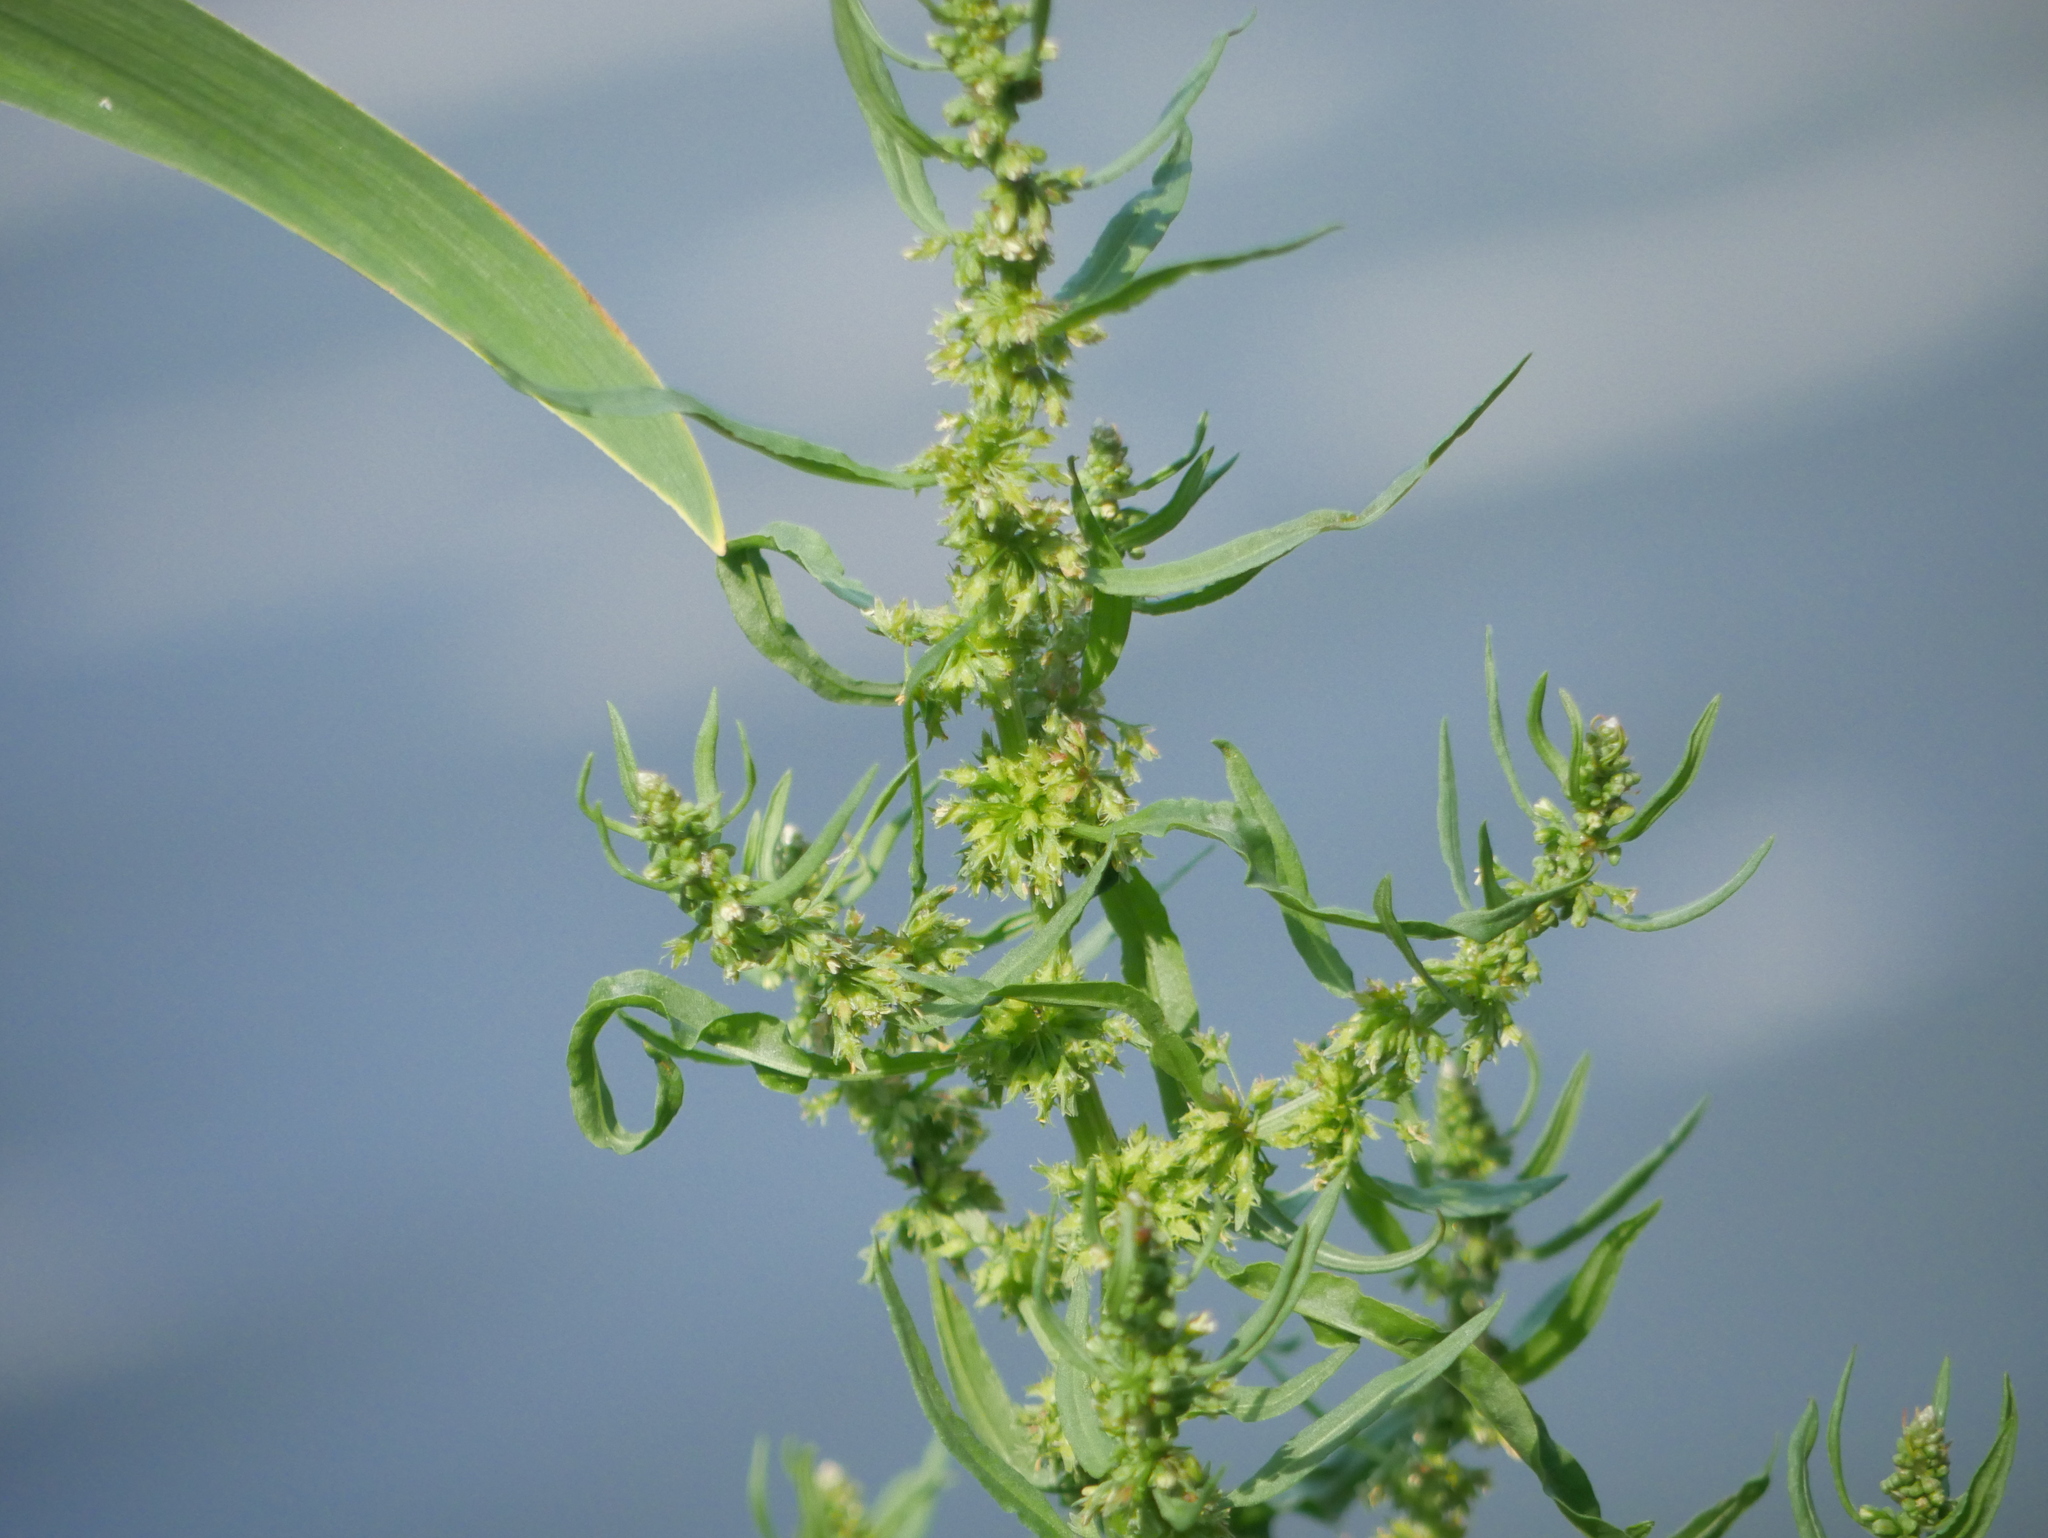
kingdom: Plantae
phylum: Tracheophyta
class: Magnoliopsida
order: Caryophyllales
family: Polygonaceae
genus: Rumex
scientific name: Rumex palustris
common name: Marsh dock
